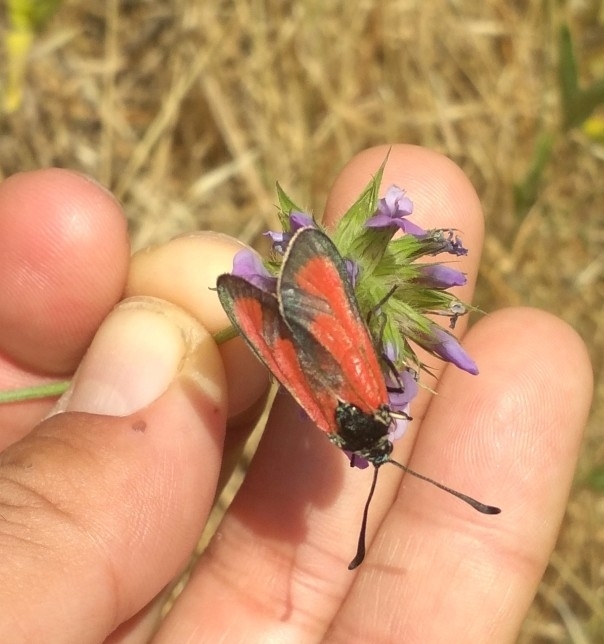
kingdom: Animalia
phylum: Arthropoda
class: Insecta
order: Lepidoptera
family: Zygaenidae
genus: Zygaena
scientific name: Zygaena erythrus
